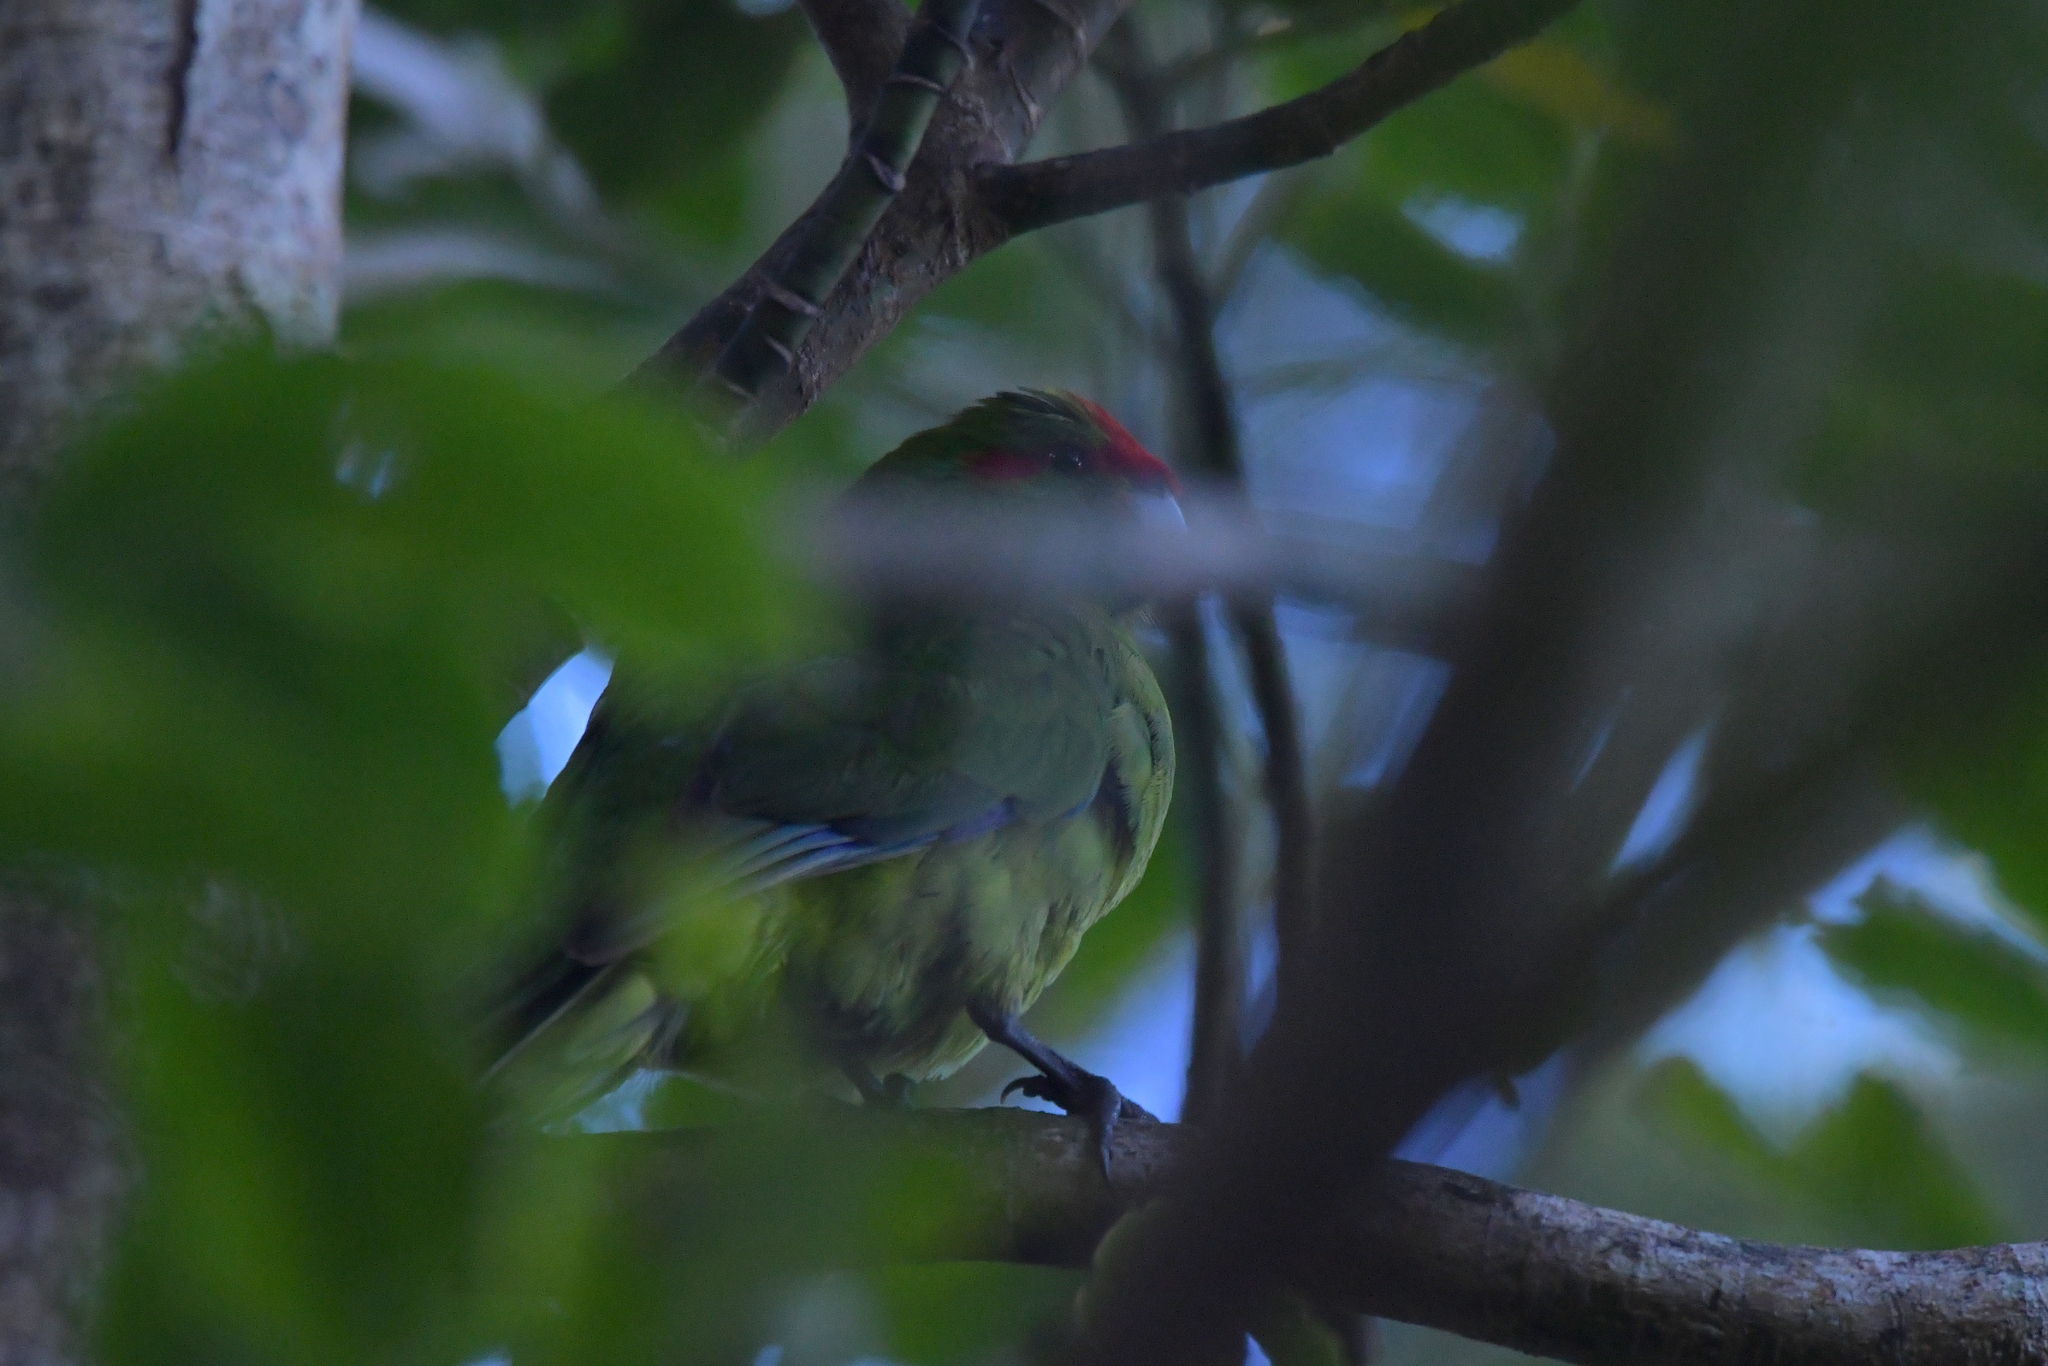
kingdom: Animalia
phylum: Chordata
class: Aves
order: Psittaciformes
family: Psittacidae
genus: Cyanoramphus
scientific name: Cyanoramphus novaezelandiae
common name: Red-fronted parakeet
